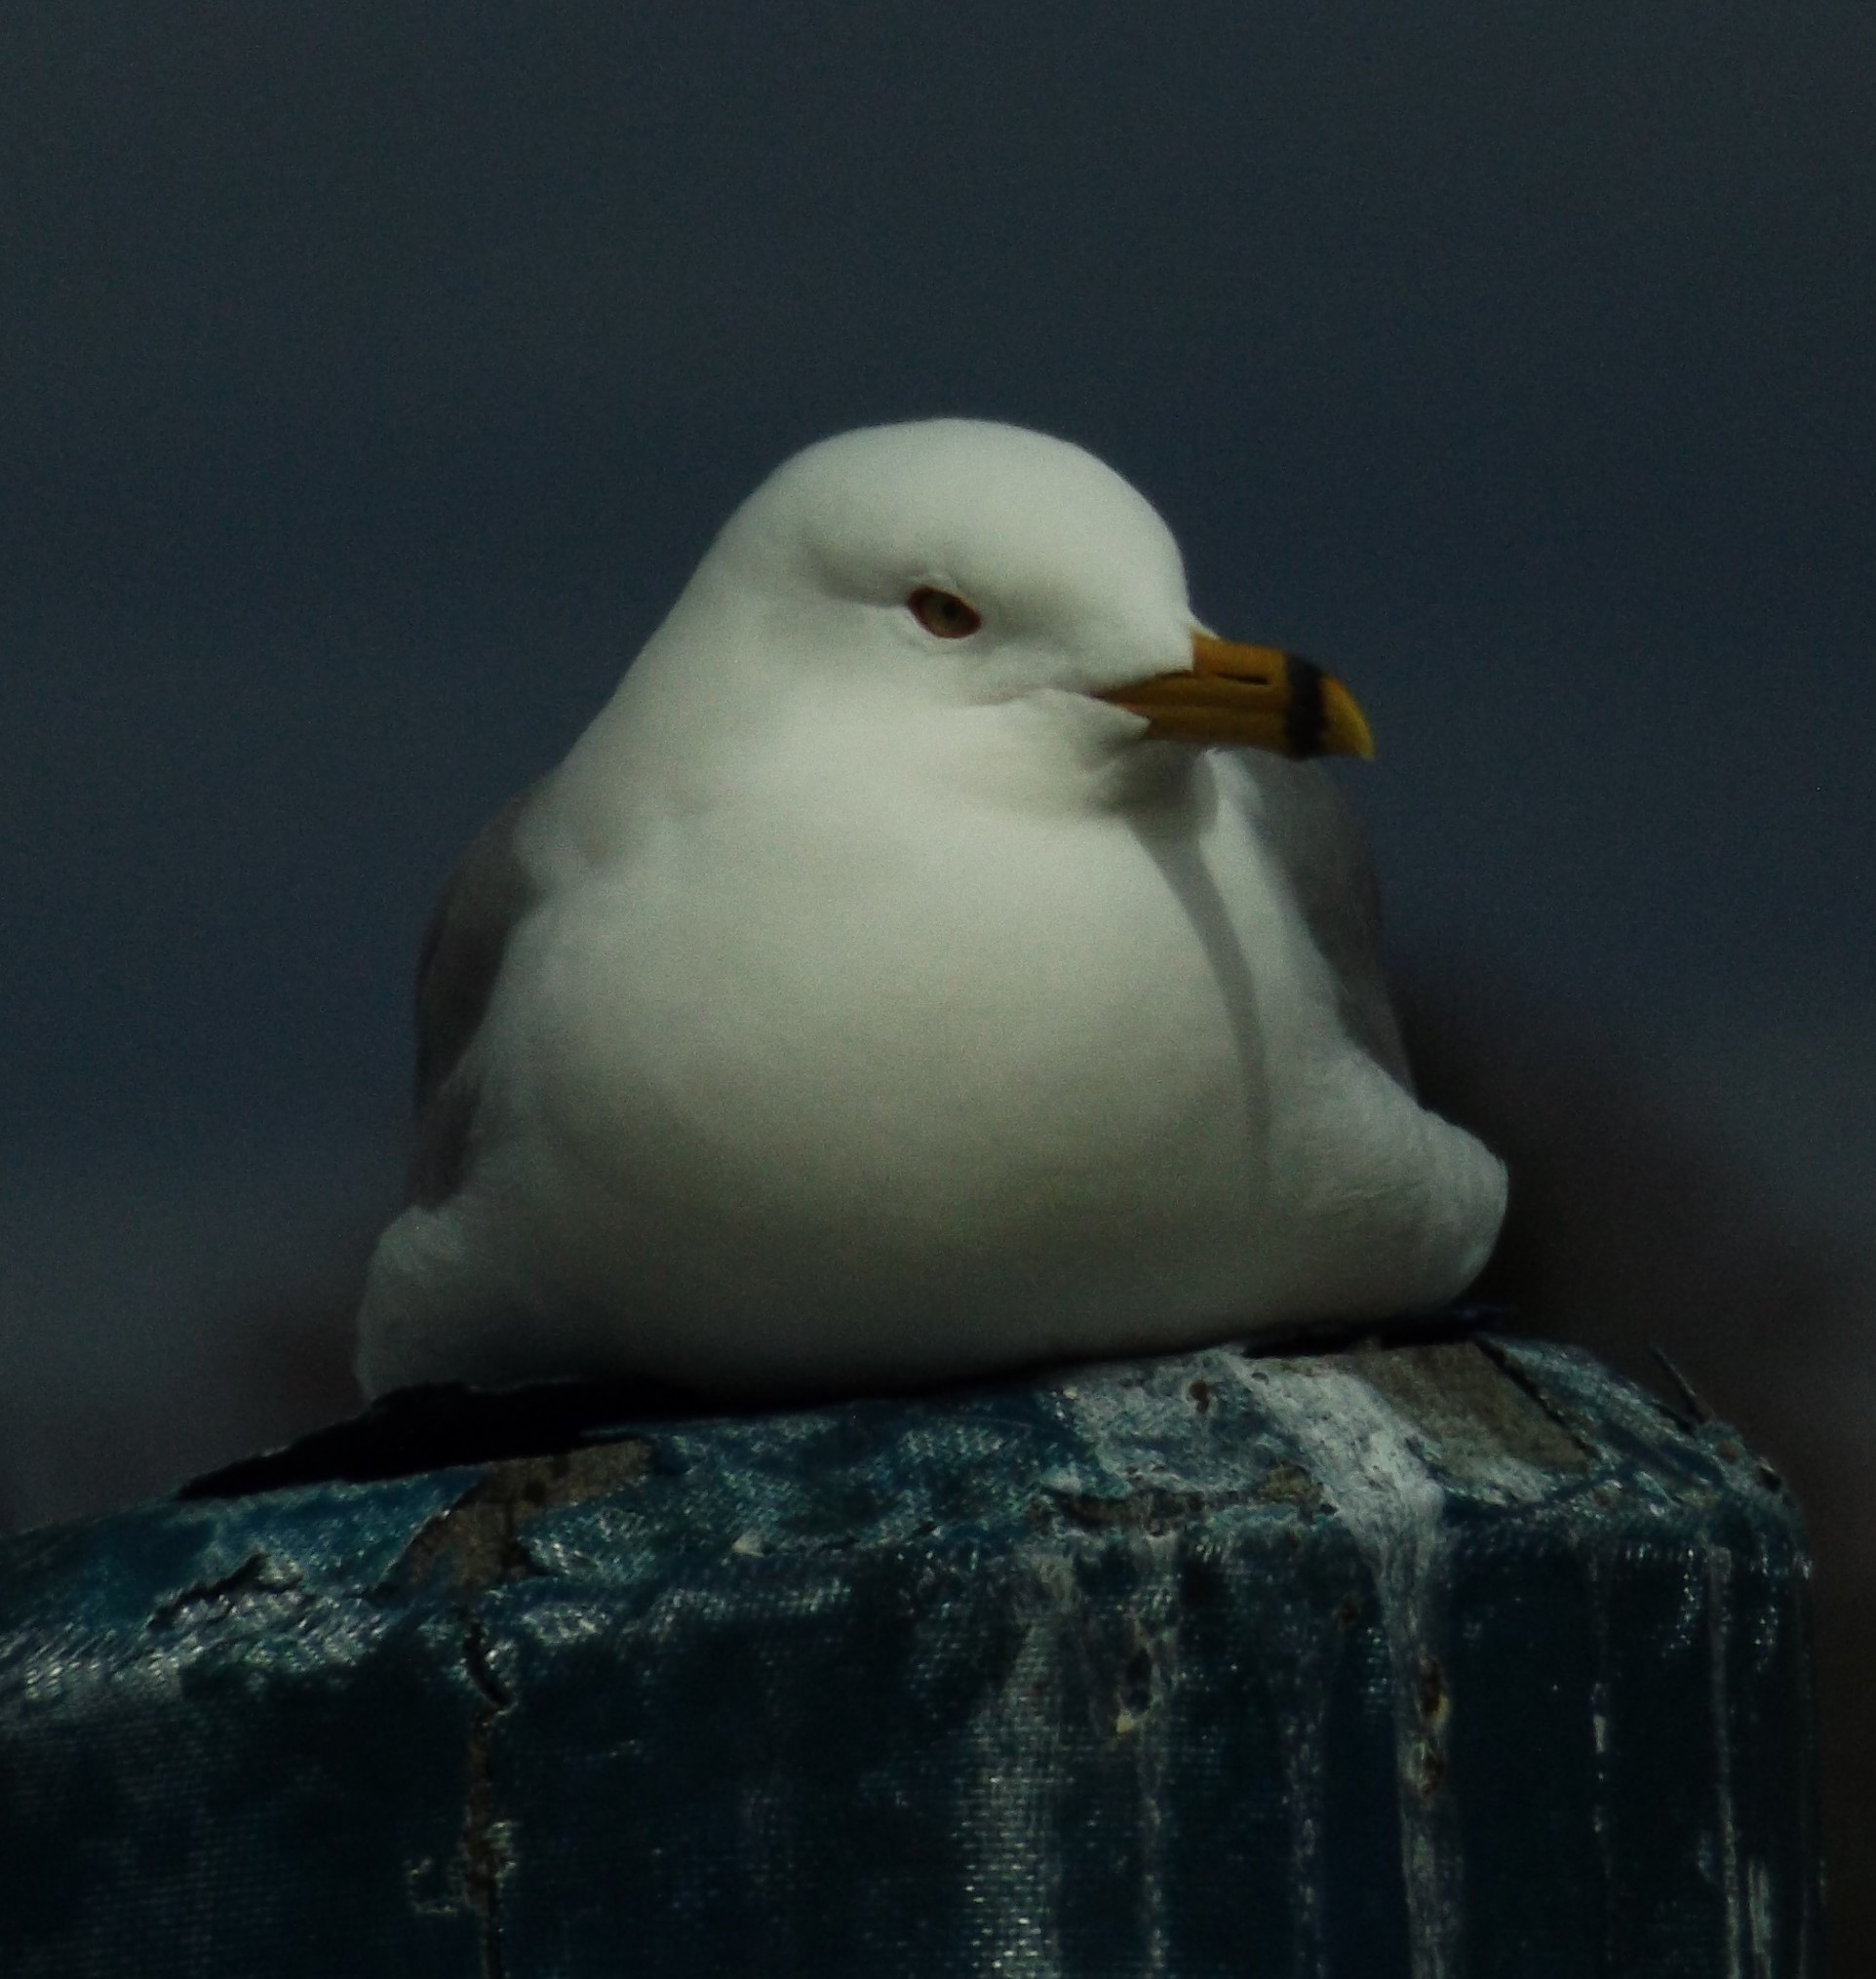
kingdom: Animalia
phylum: Chordata
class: Aves
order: Charadriiformes
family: Laridae
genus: Larus
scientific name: Larus delawarensis
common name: Ring-billed gull
